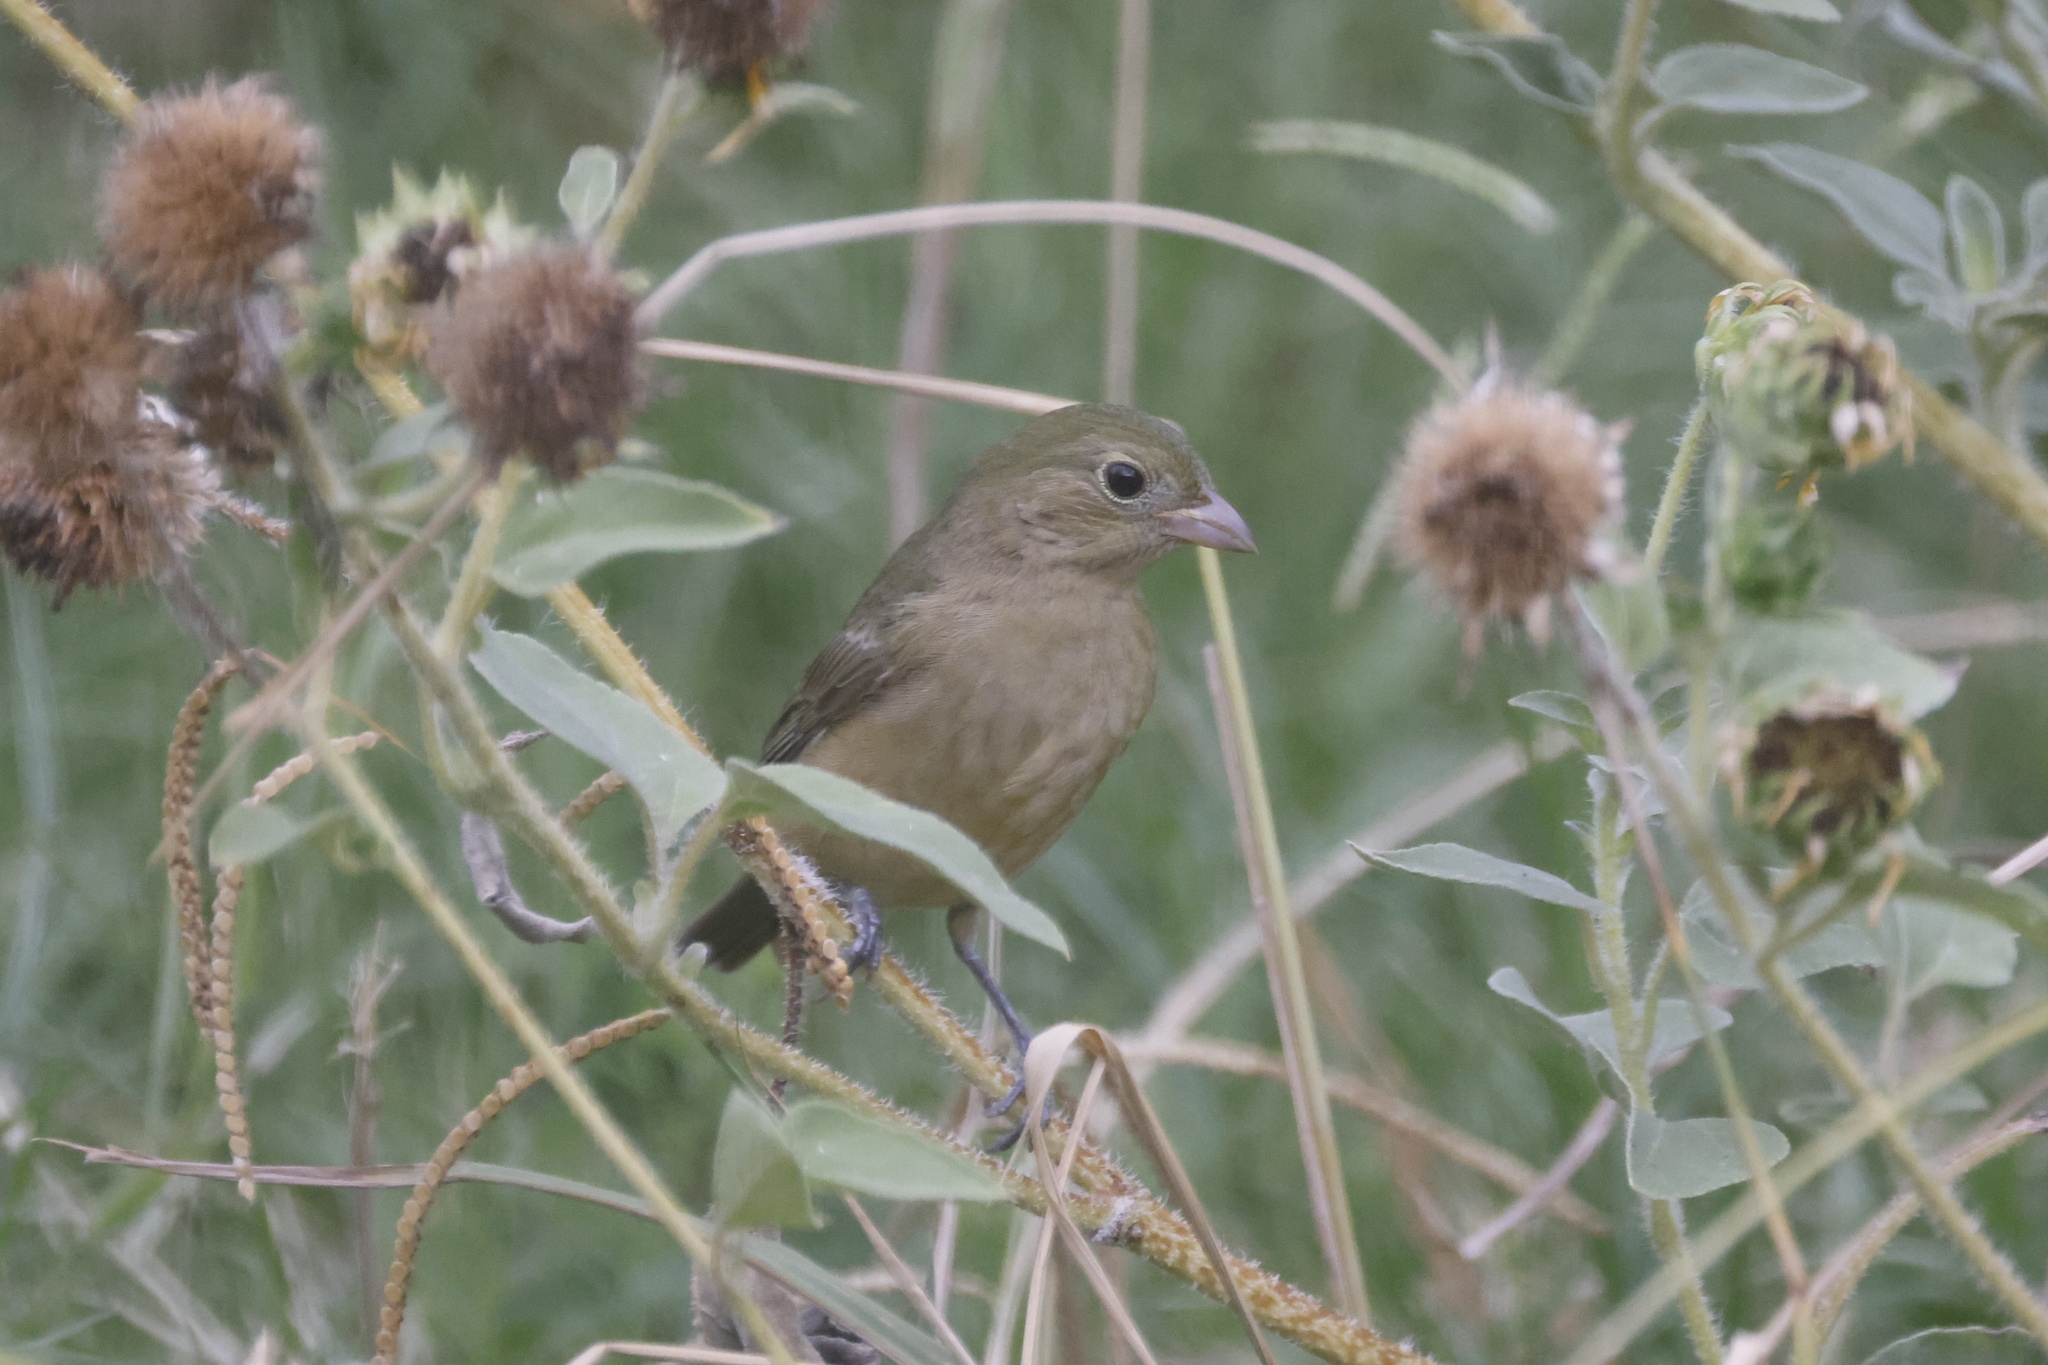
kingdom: Animalia
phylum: Chordata
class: Aves
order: Passeriformes
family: Cardinalidae
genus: Passerina
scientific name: Passerina ciris
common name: Painted bunting
